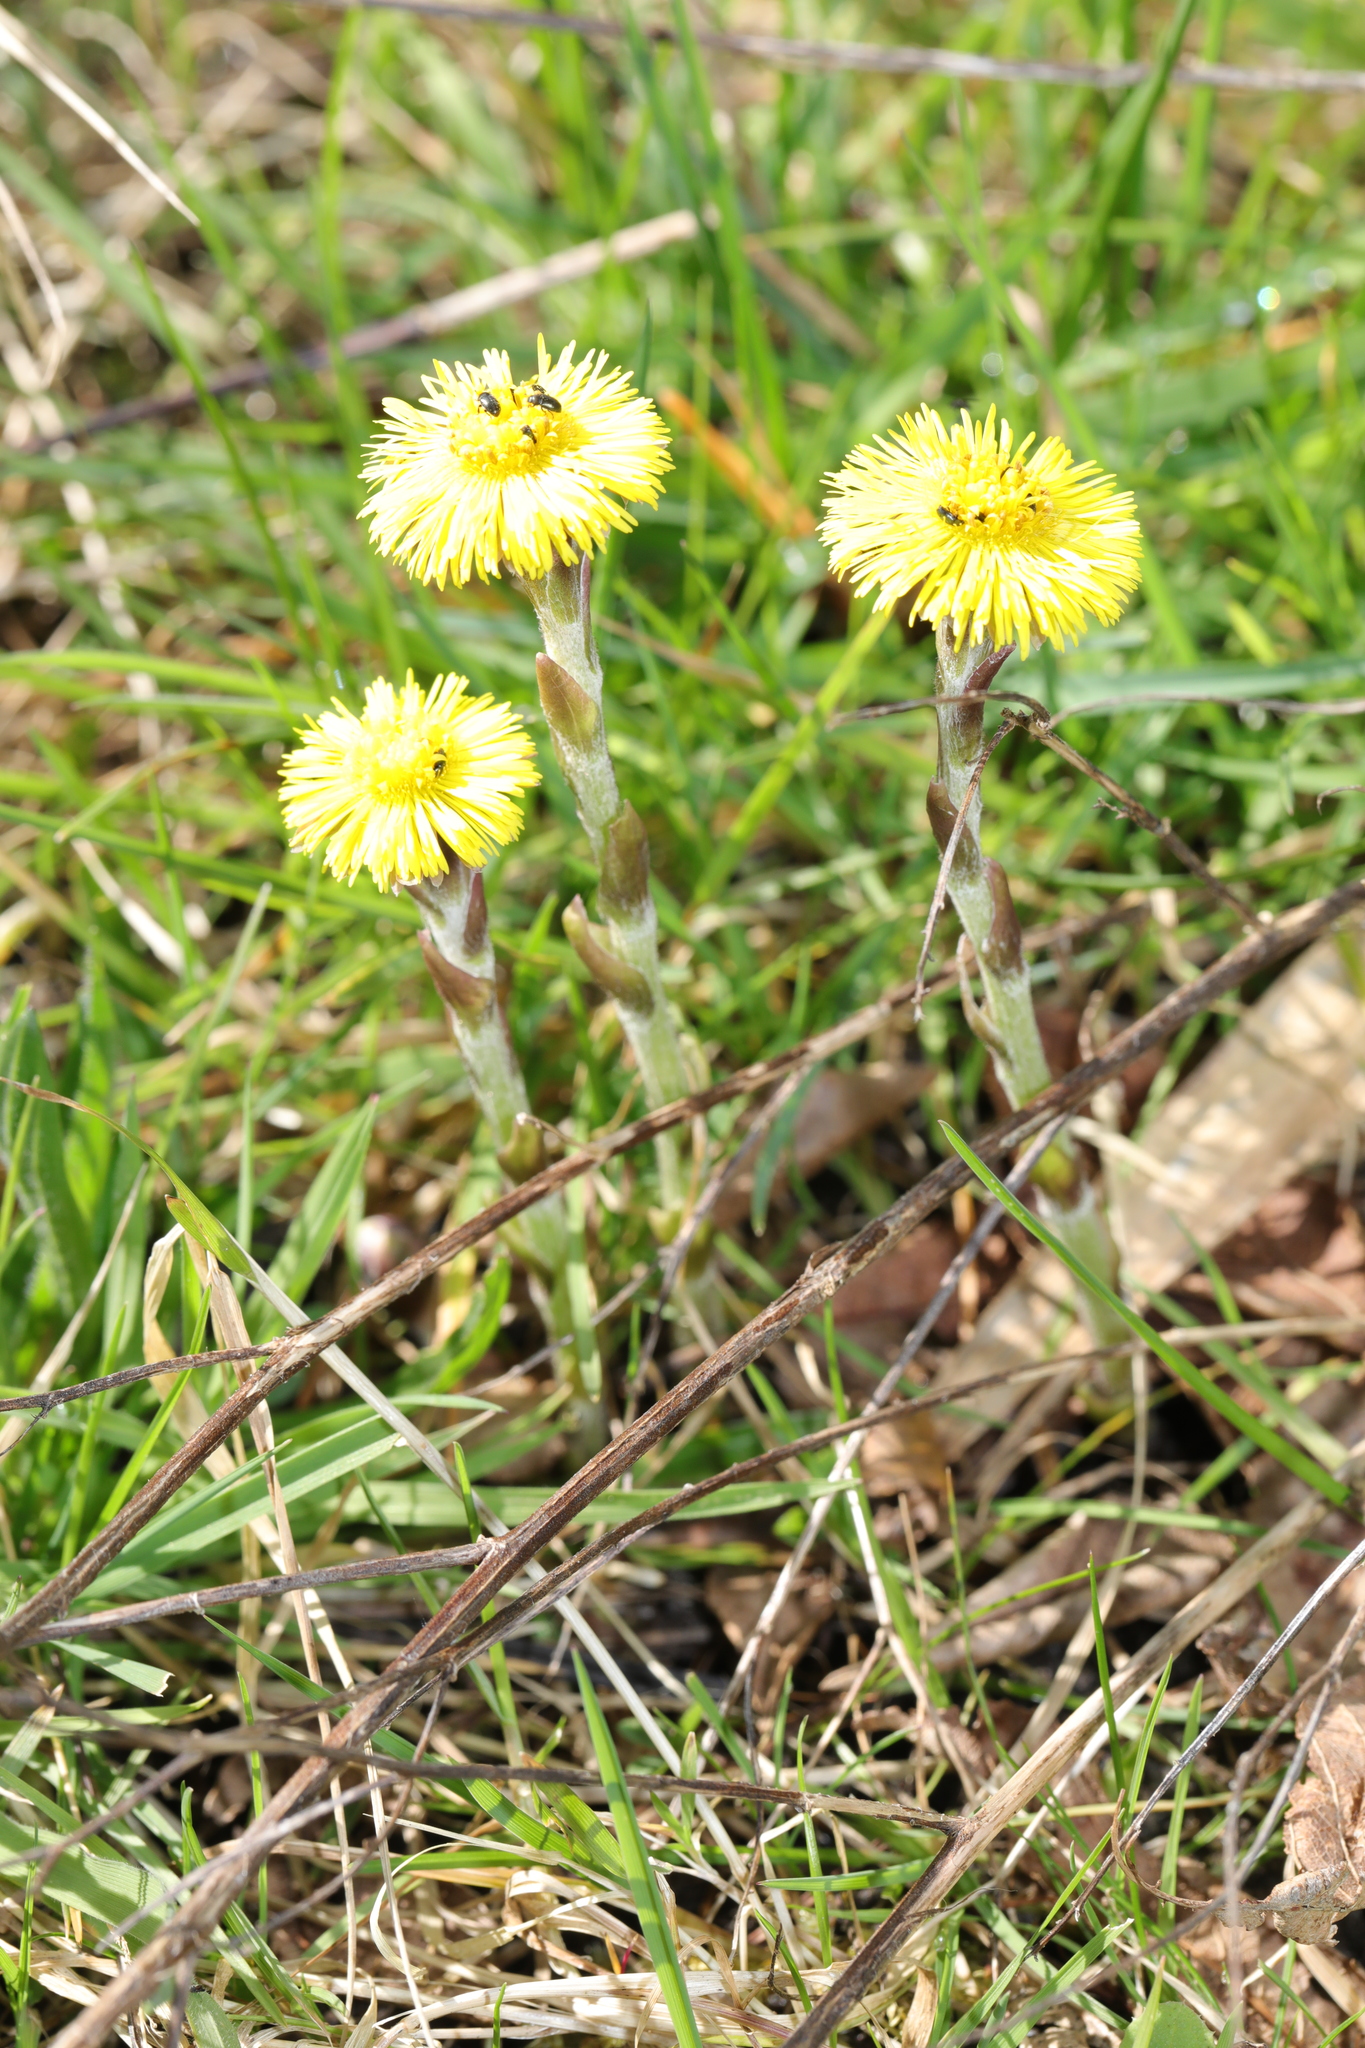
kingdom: Plantae
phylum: Tracheophyta
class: Magnoliopsida
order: Asterales
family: Asteraceae
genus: Tussilago
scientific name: Tussilago farfara
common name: Coltsfoot
